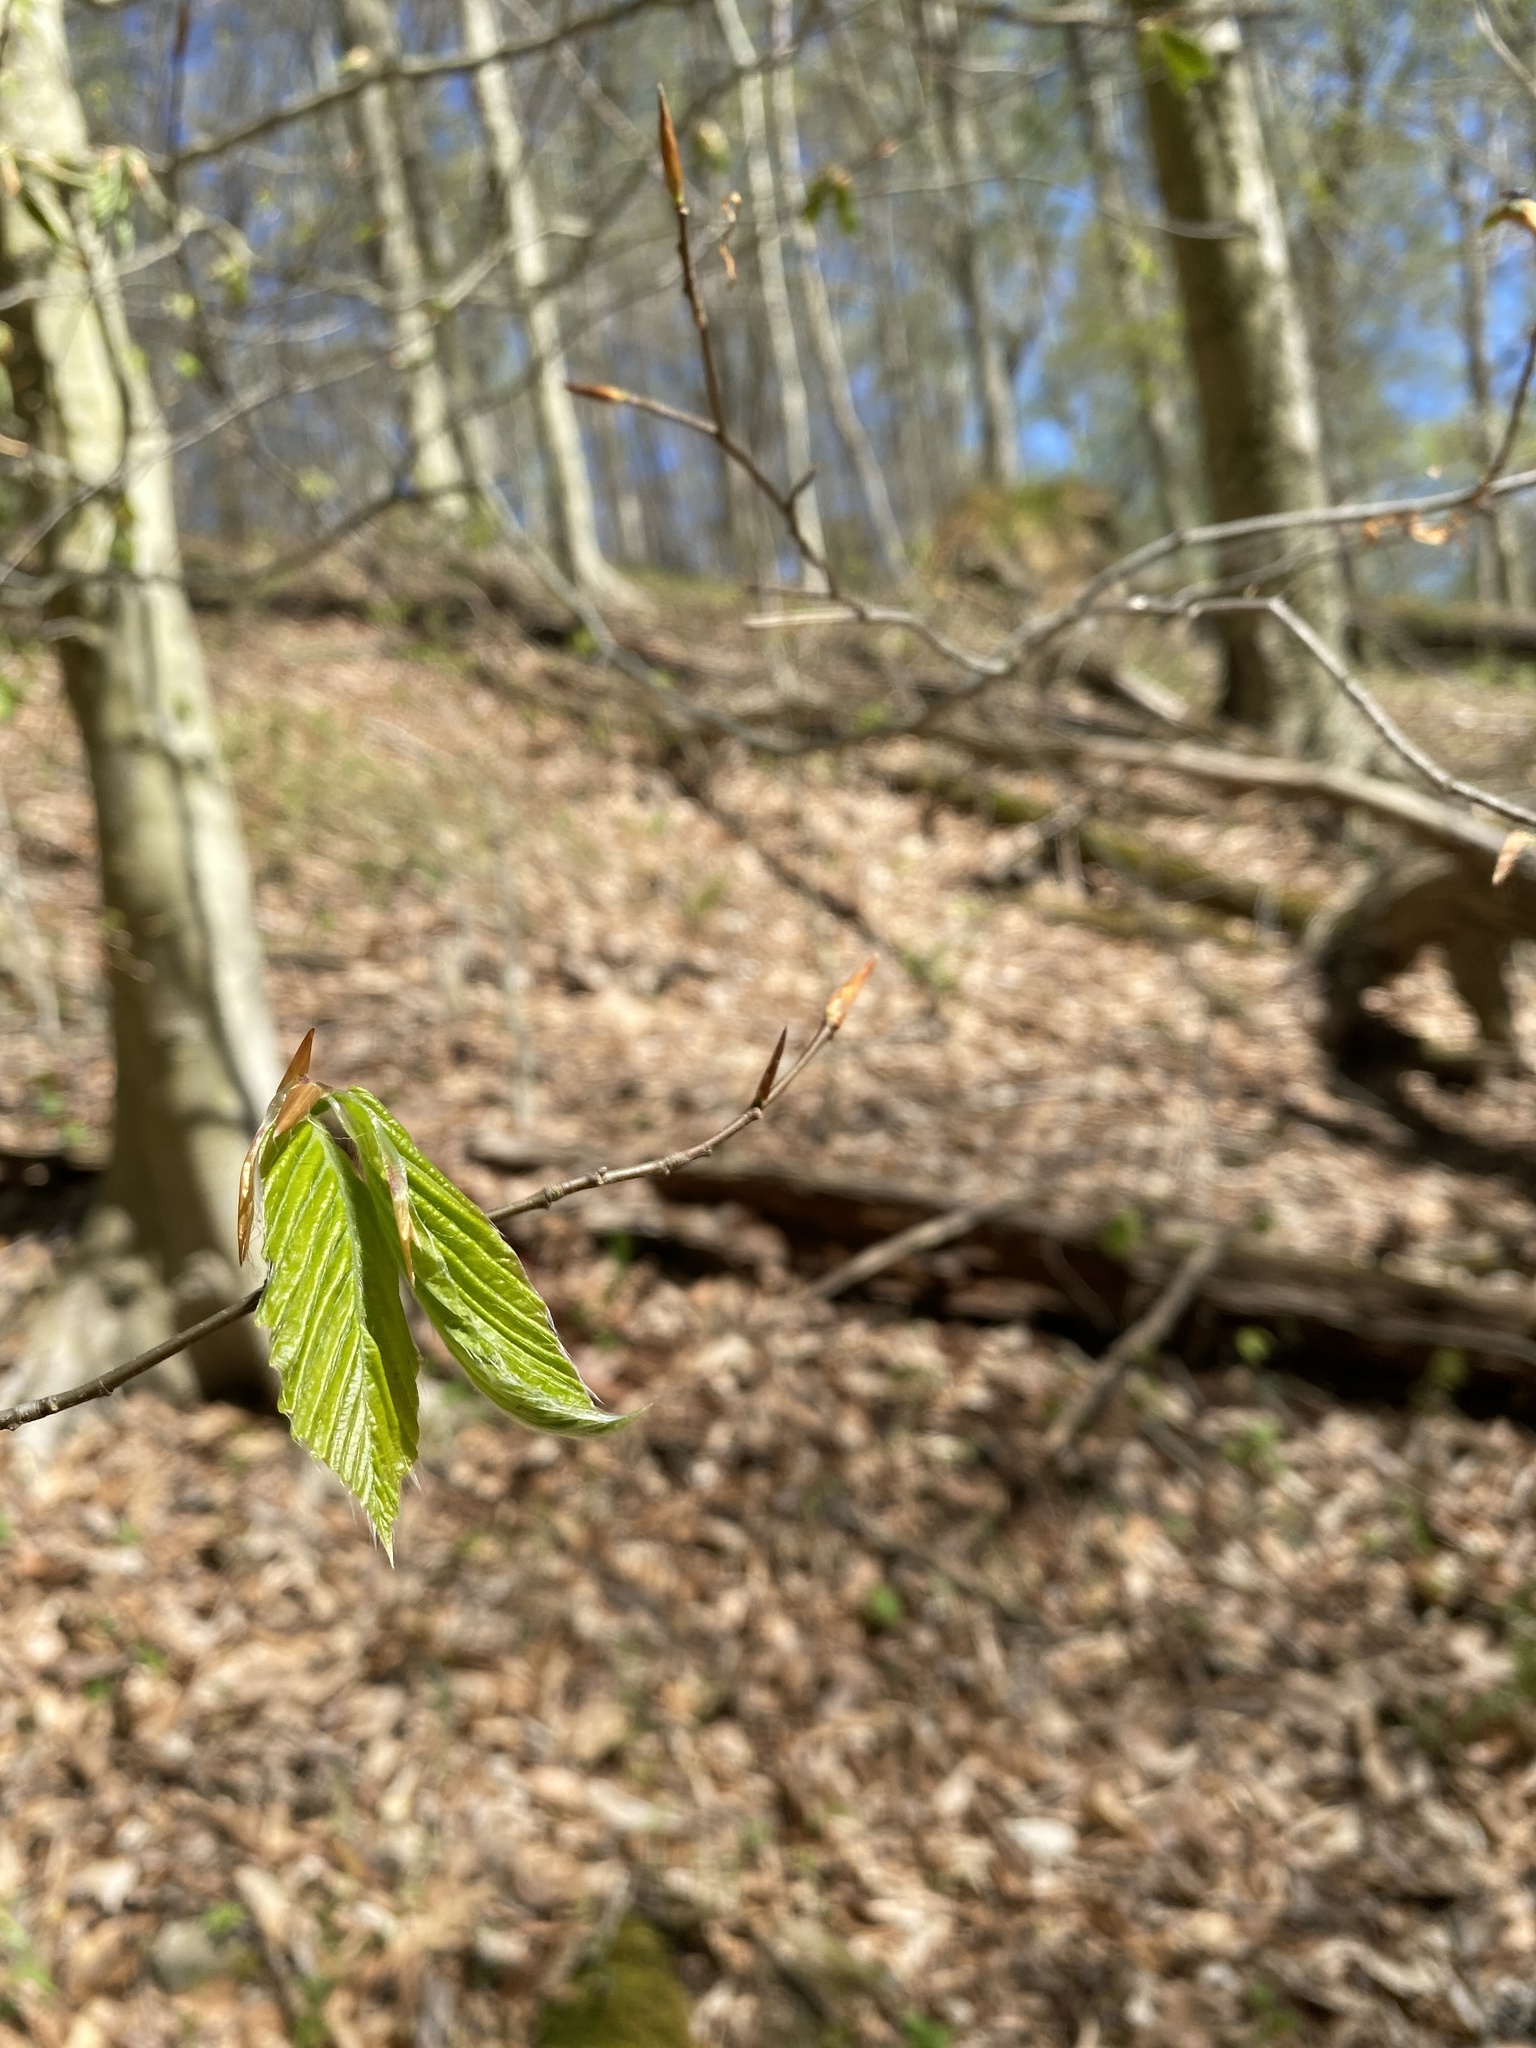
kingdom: Plantae
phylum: Tracheophyta
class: Magnoliopsida
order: Fagales
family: Fagaceae
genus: Fagus
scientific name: Fagus grandifolia
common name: American beech
